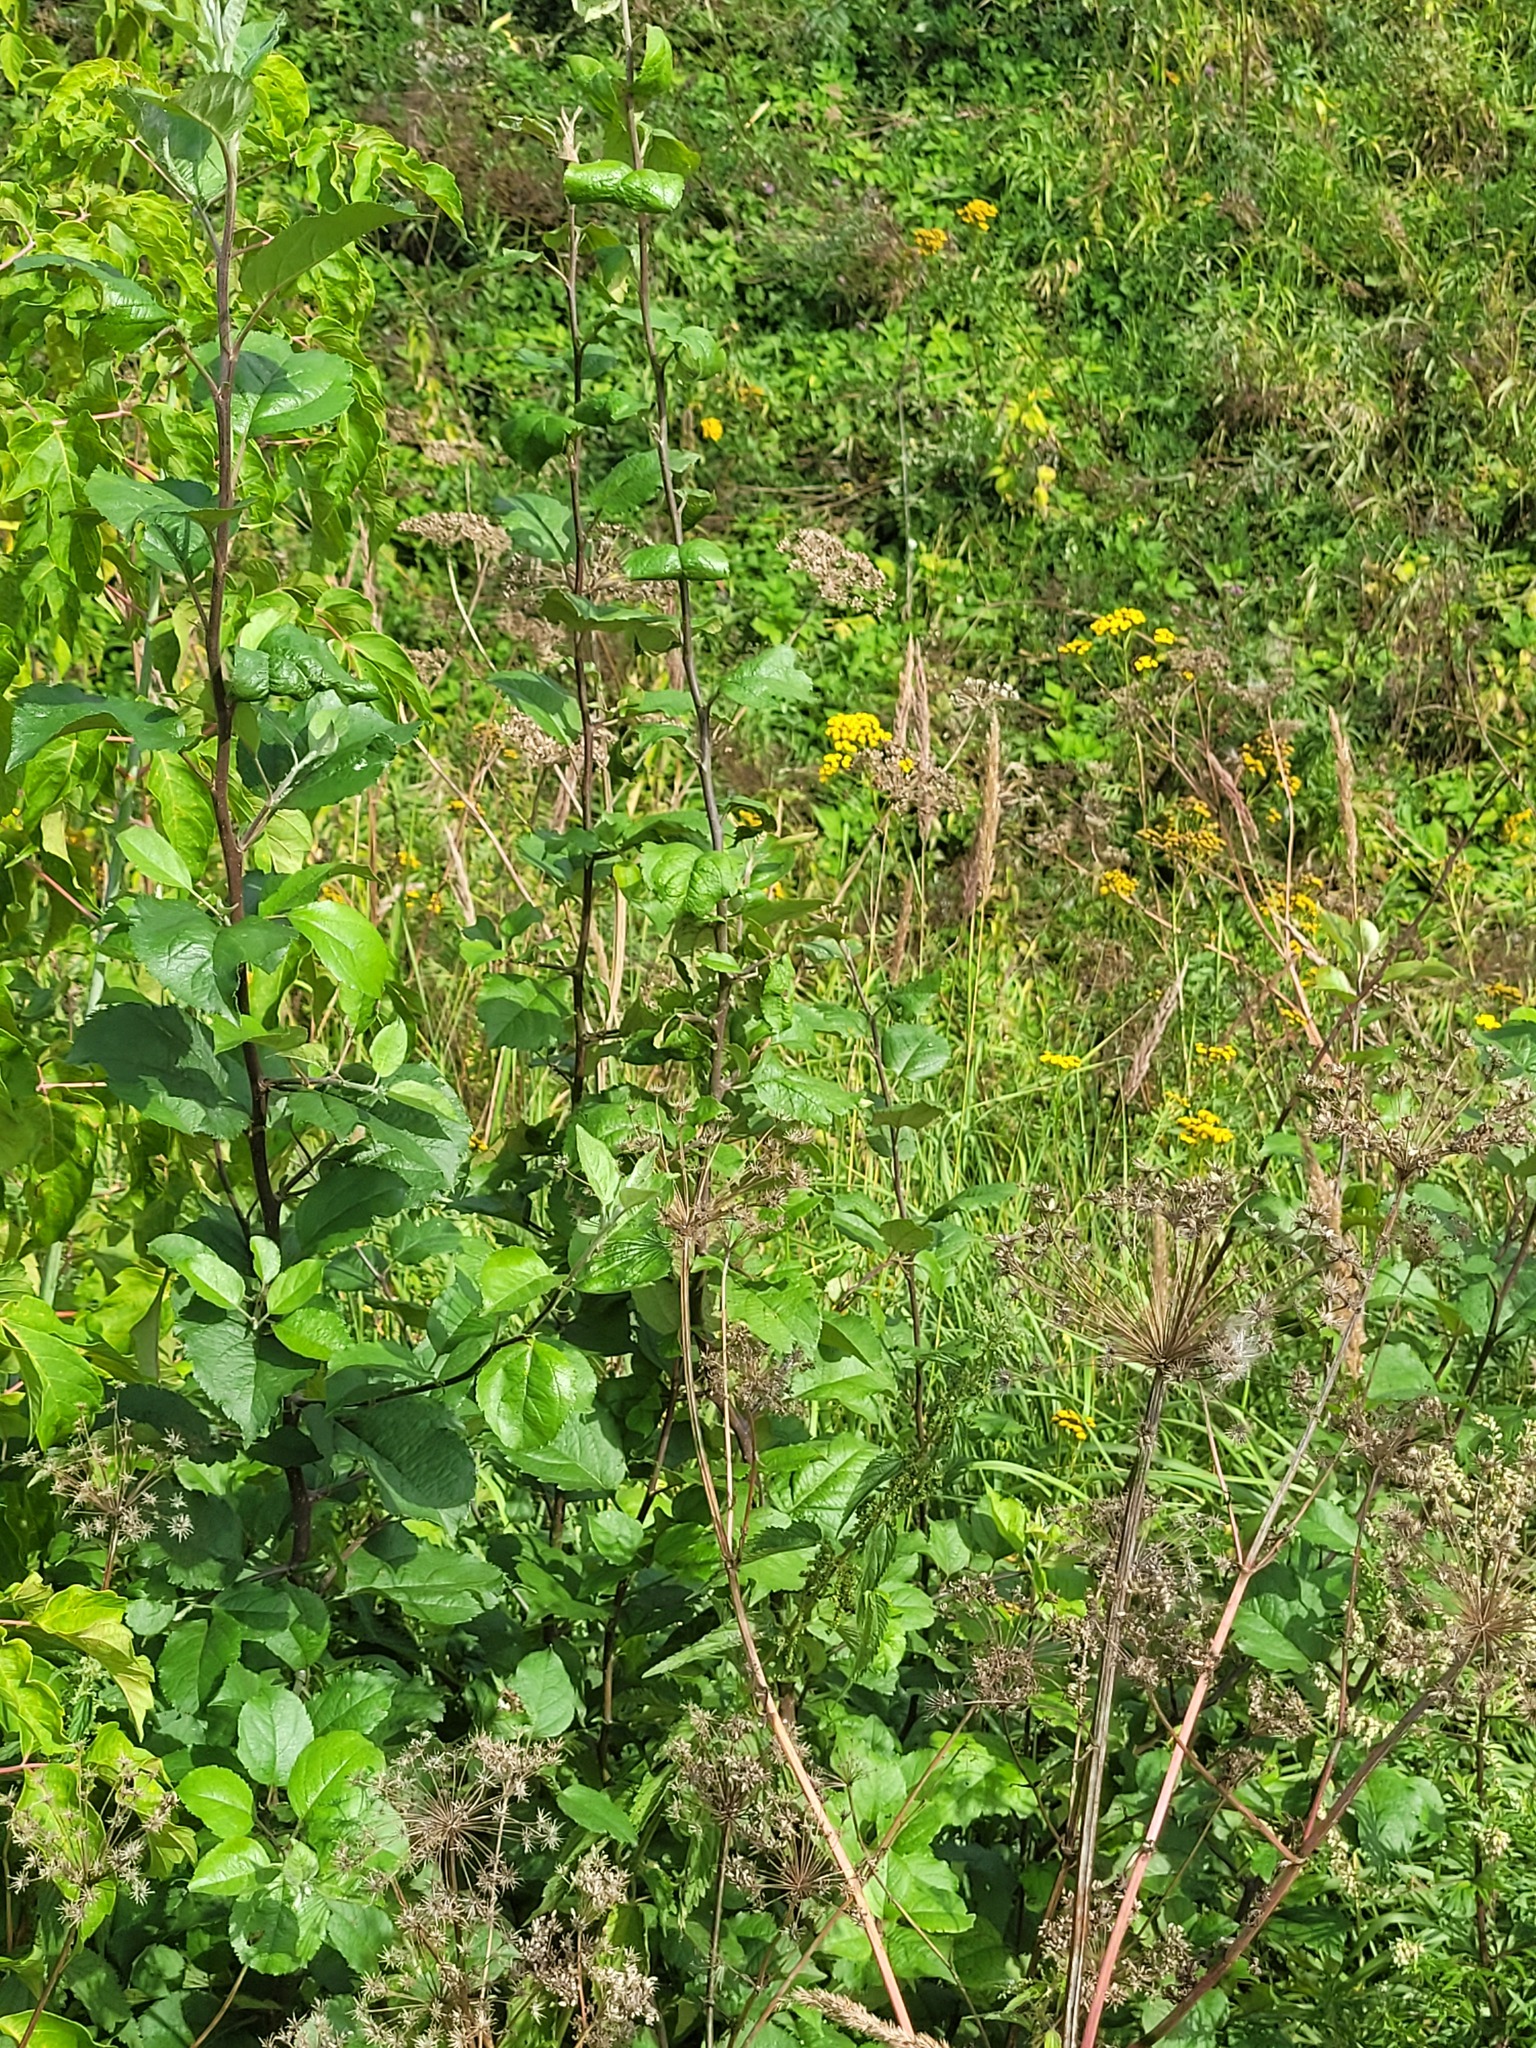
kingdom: Plantae
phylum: Tracheophyta
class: Magnoliopsida
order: Rosales
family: Rosaceae
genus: Malus
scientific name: Malus domestica
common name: Apple
